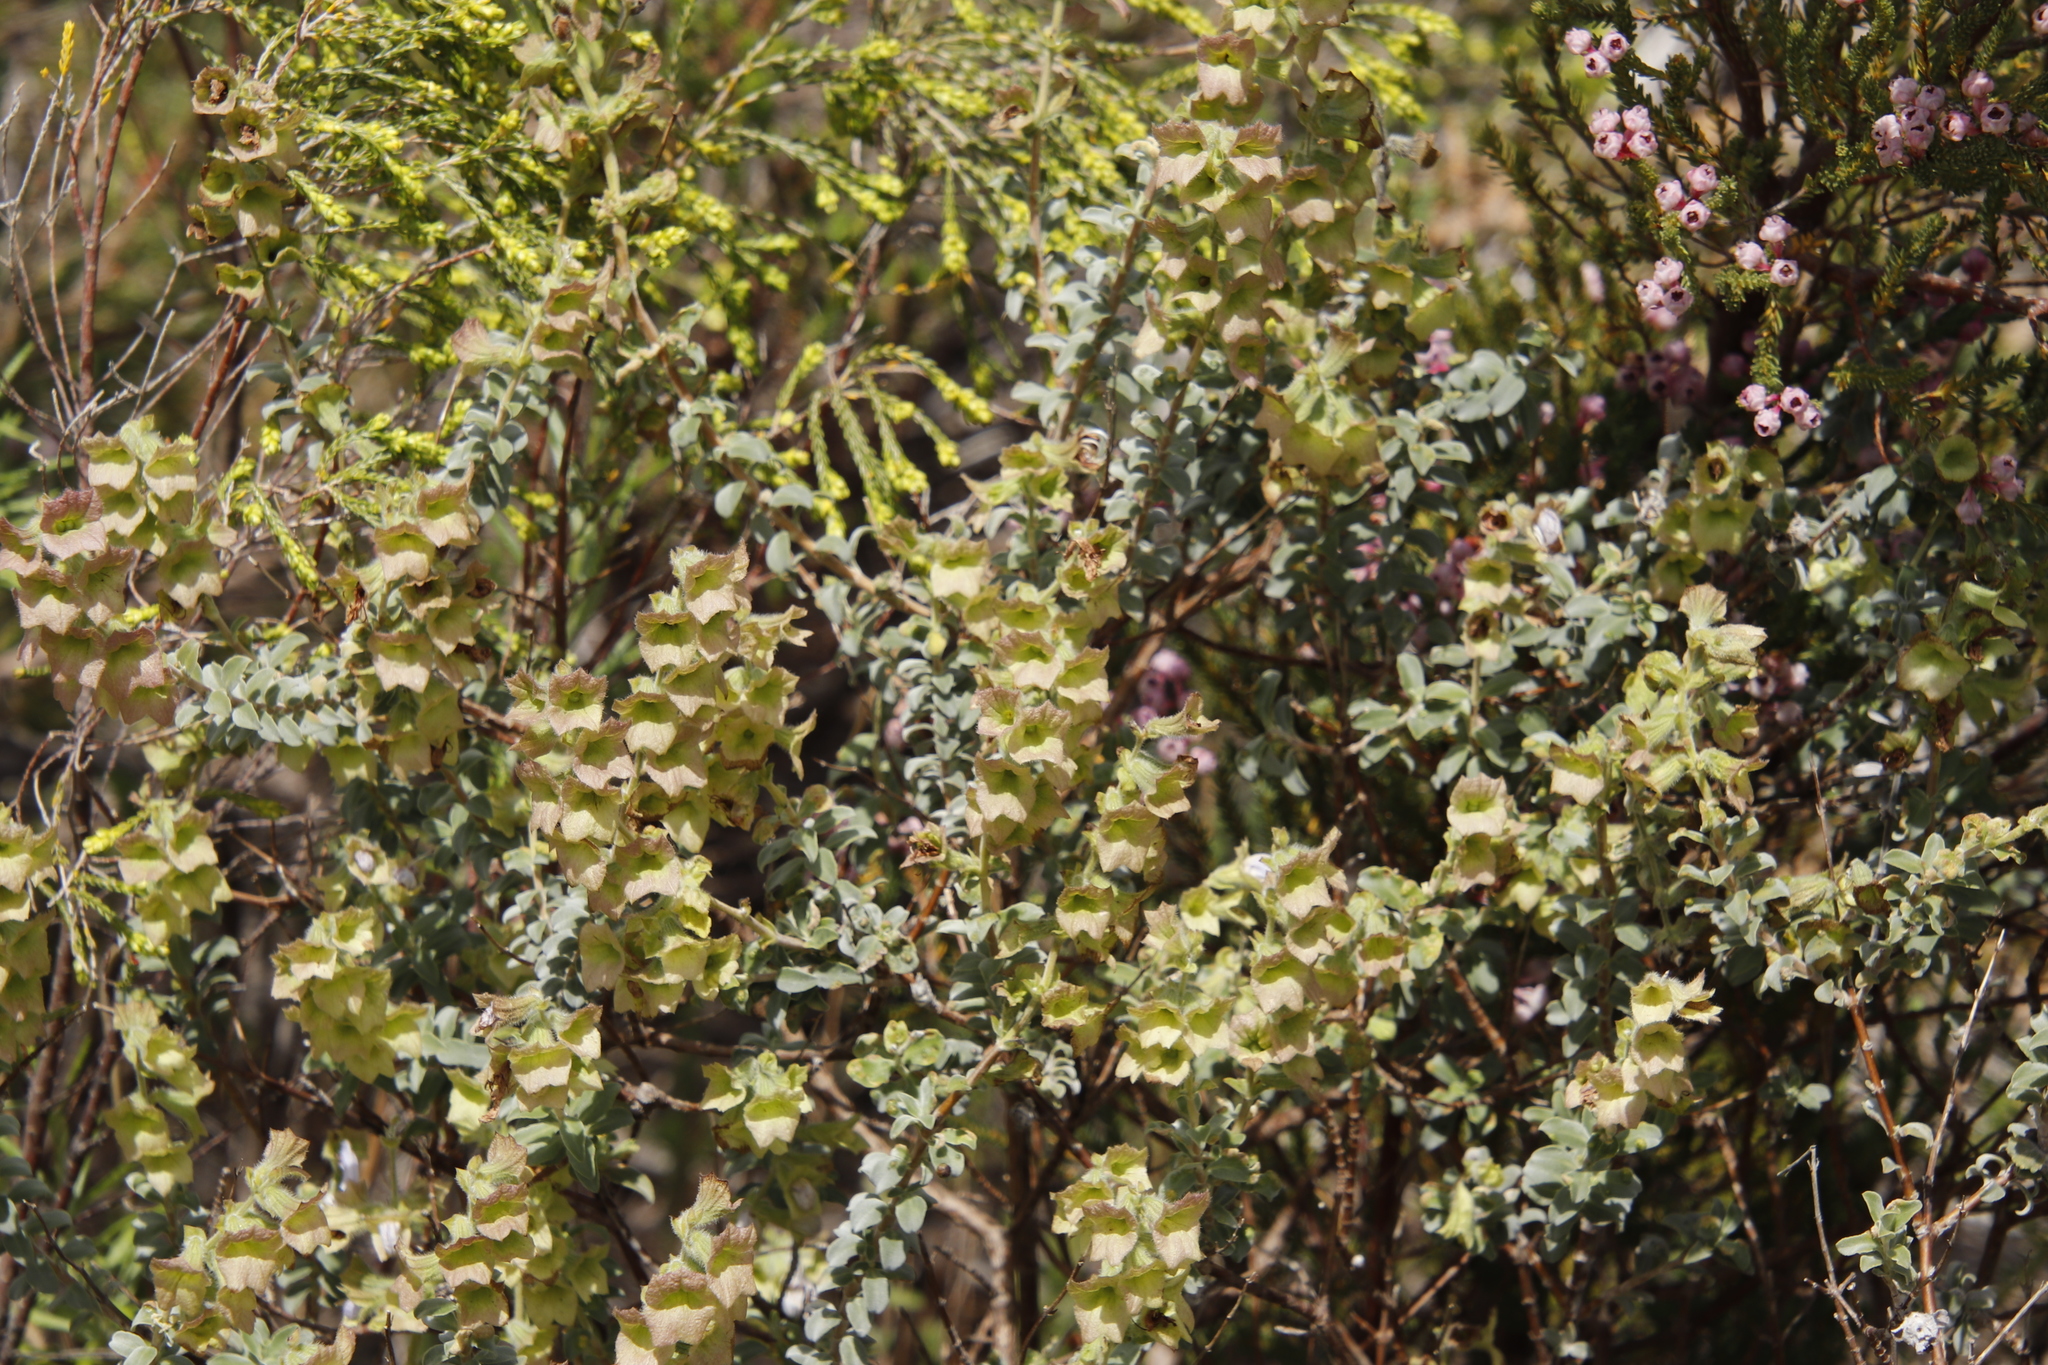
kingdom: Plantae
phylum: Tracheophyta
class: Magnoliopsida
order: Lamiales
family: Lamiaceae
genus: Salvia
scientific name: Salvia aurea
